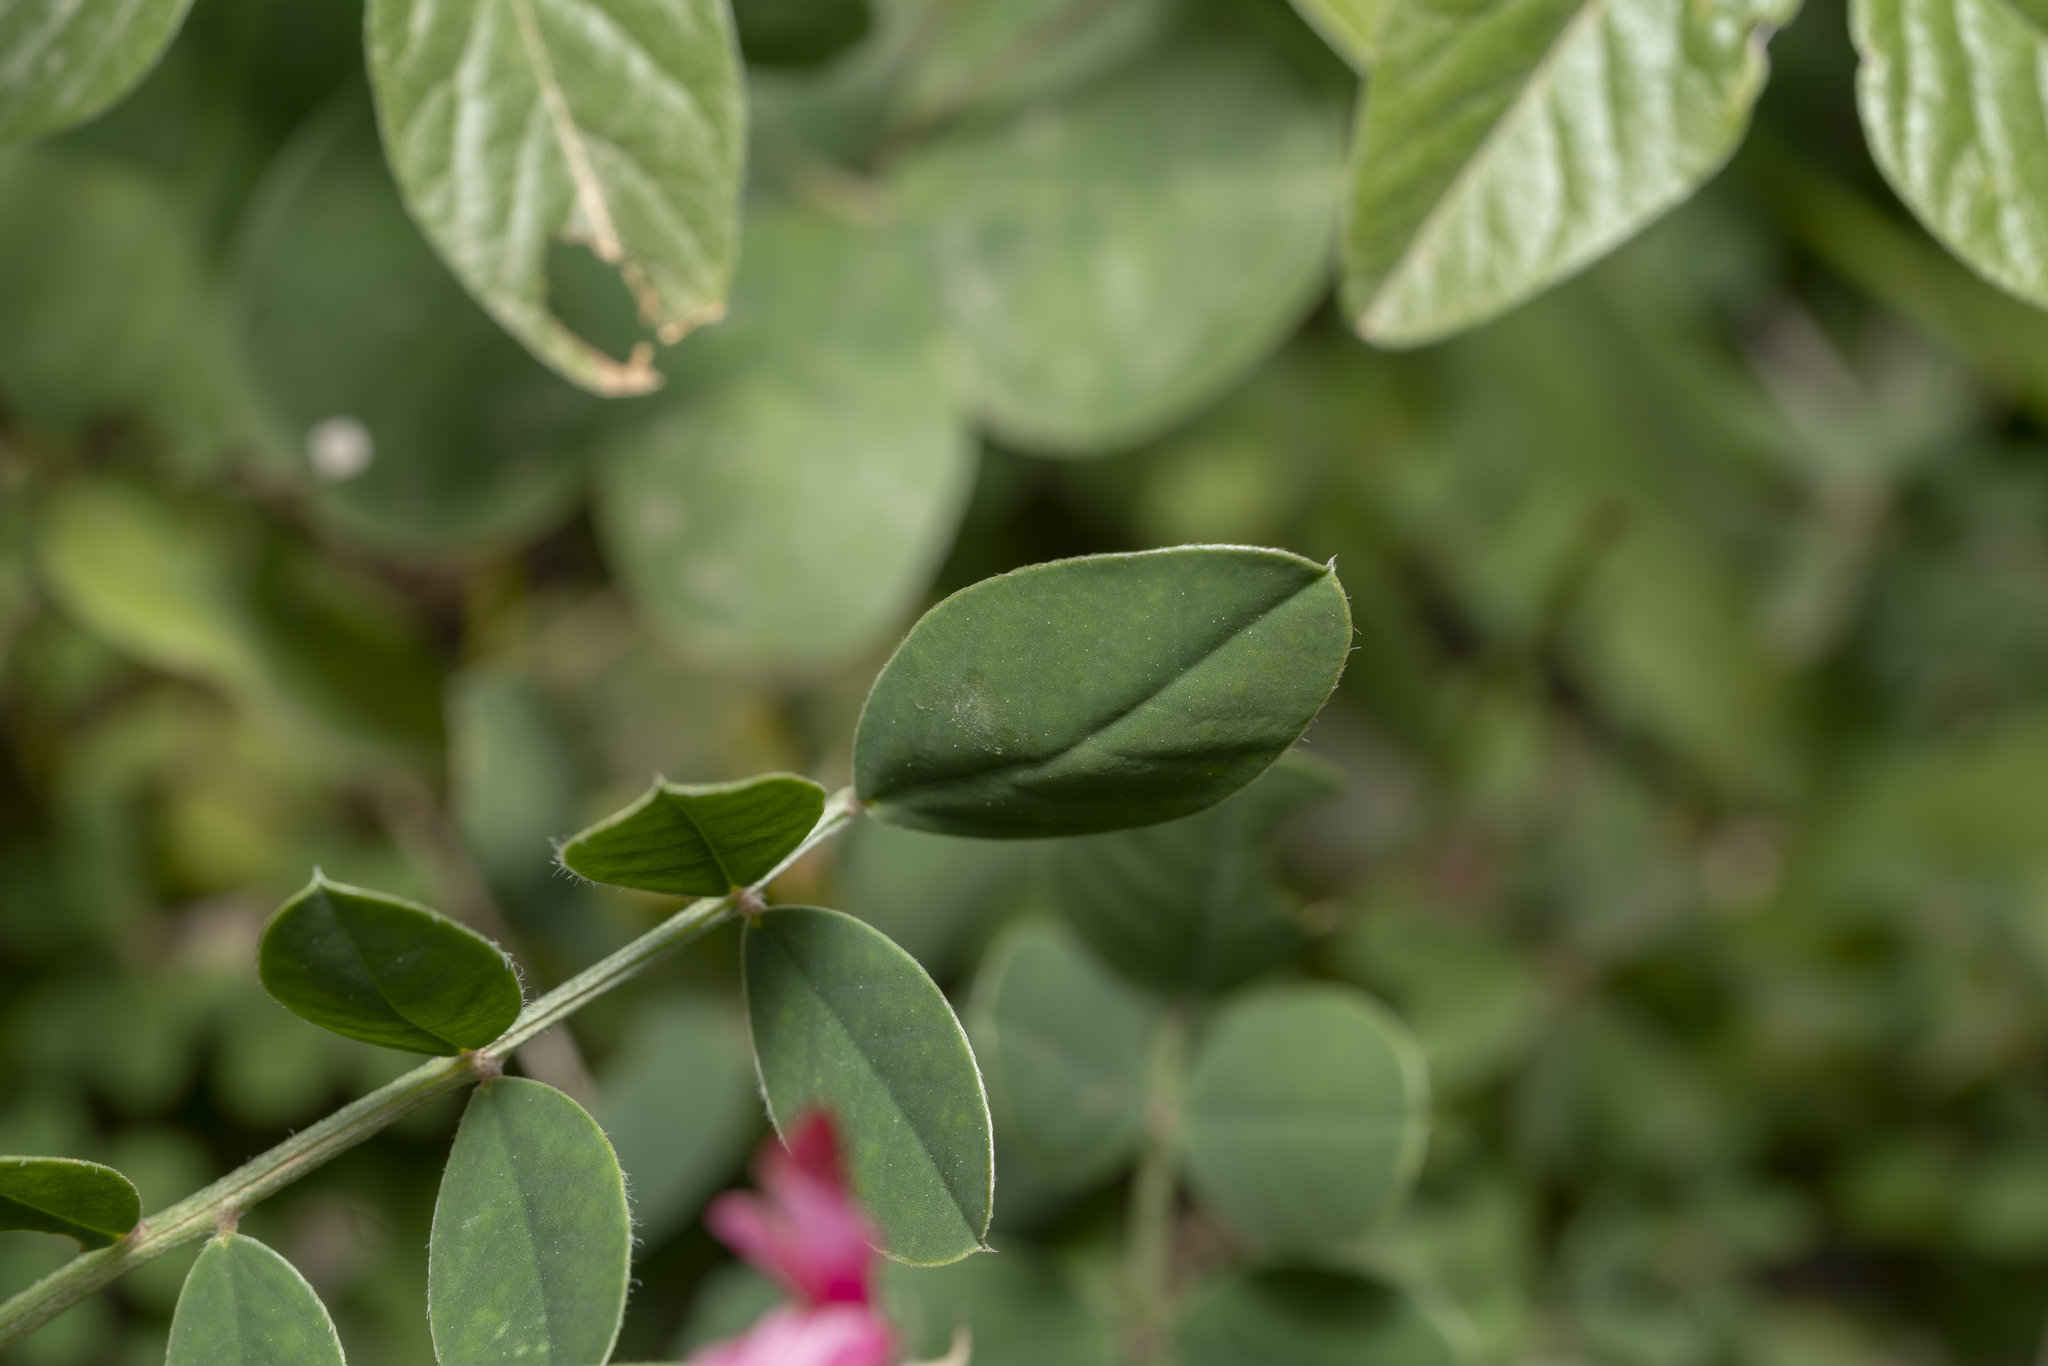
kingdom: Plantae
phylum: Tracheophyta
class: Magnoliopsida
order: Fabales
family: Fabaceae
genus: Sulla
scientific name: Sulla coronaria
